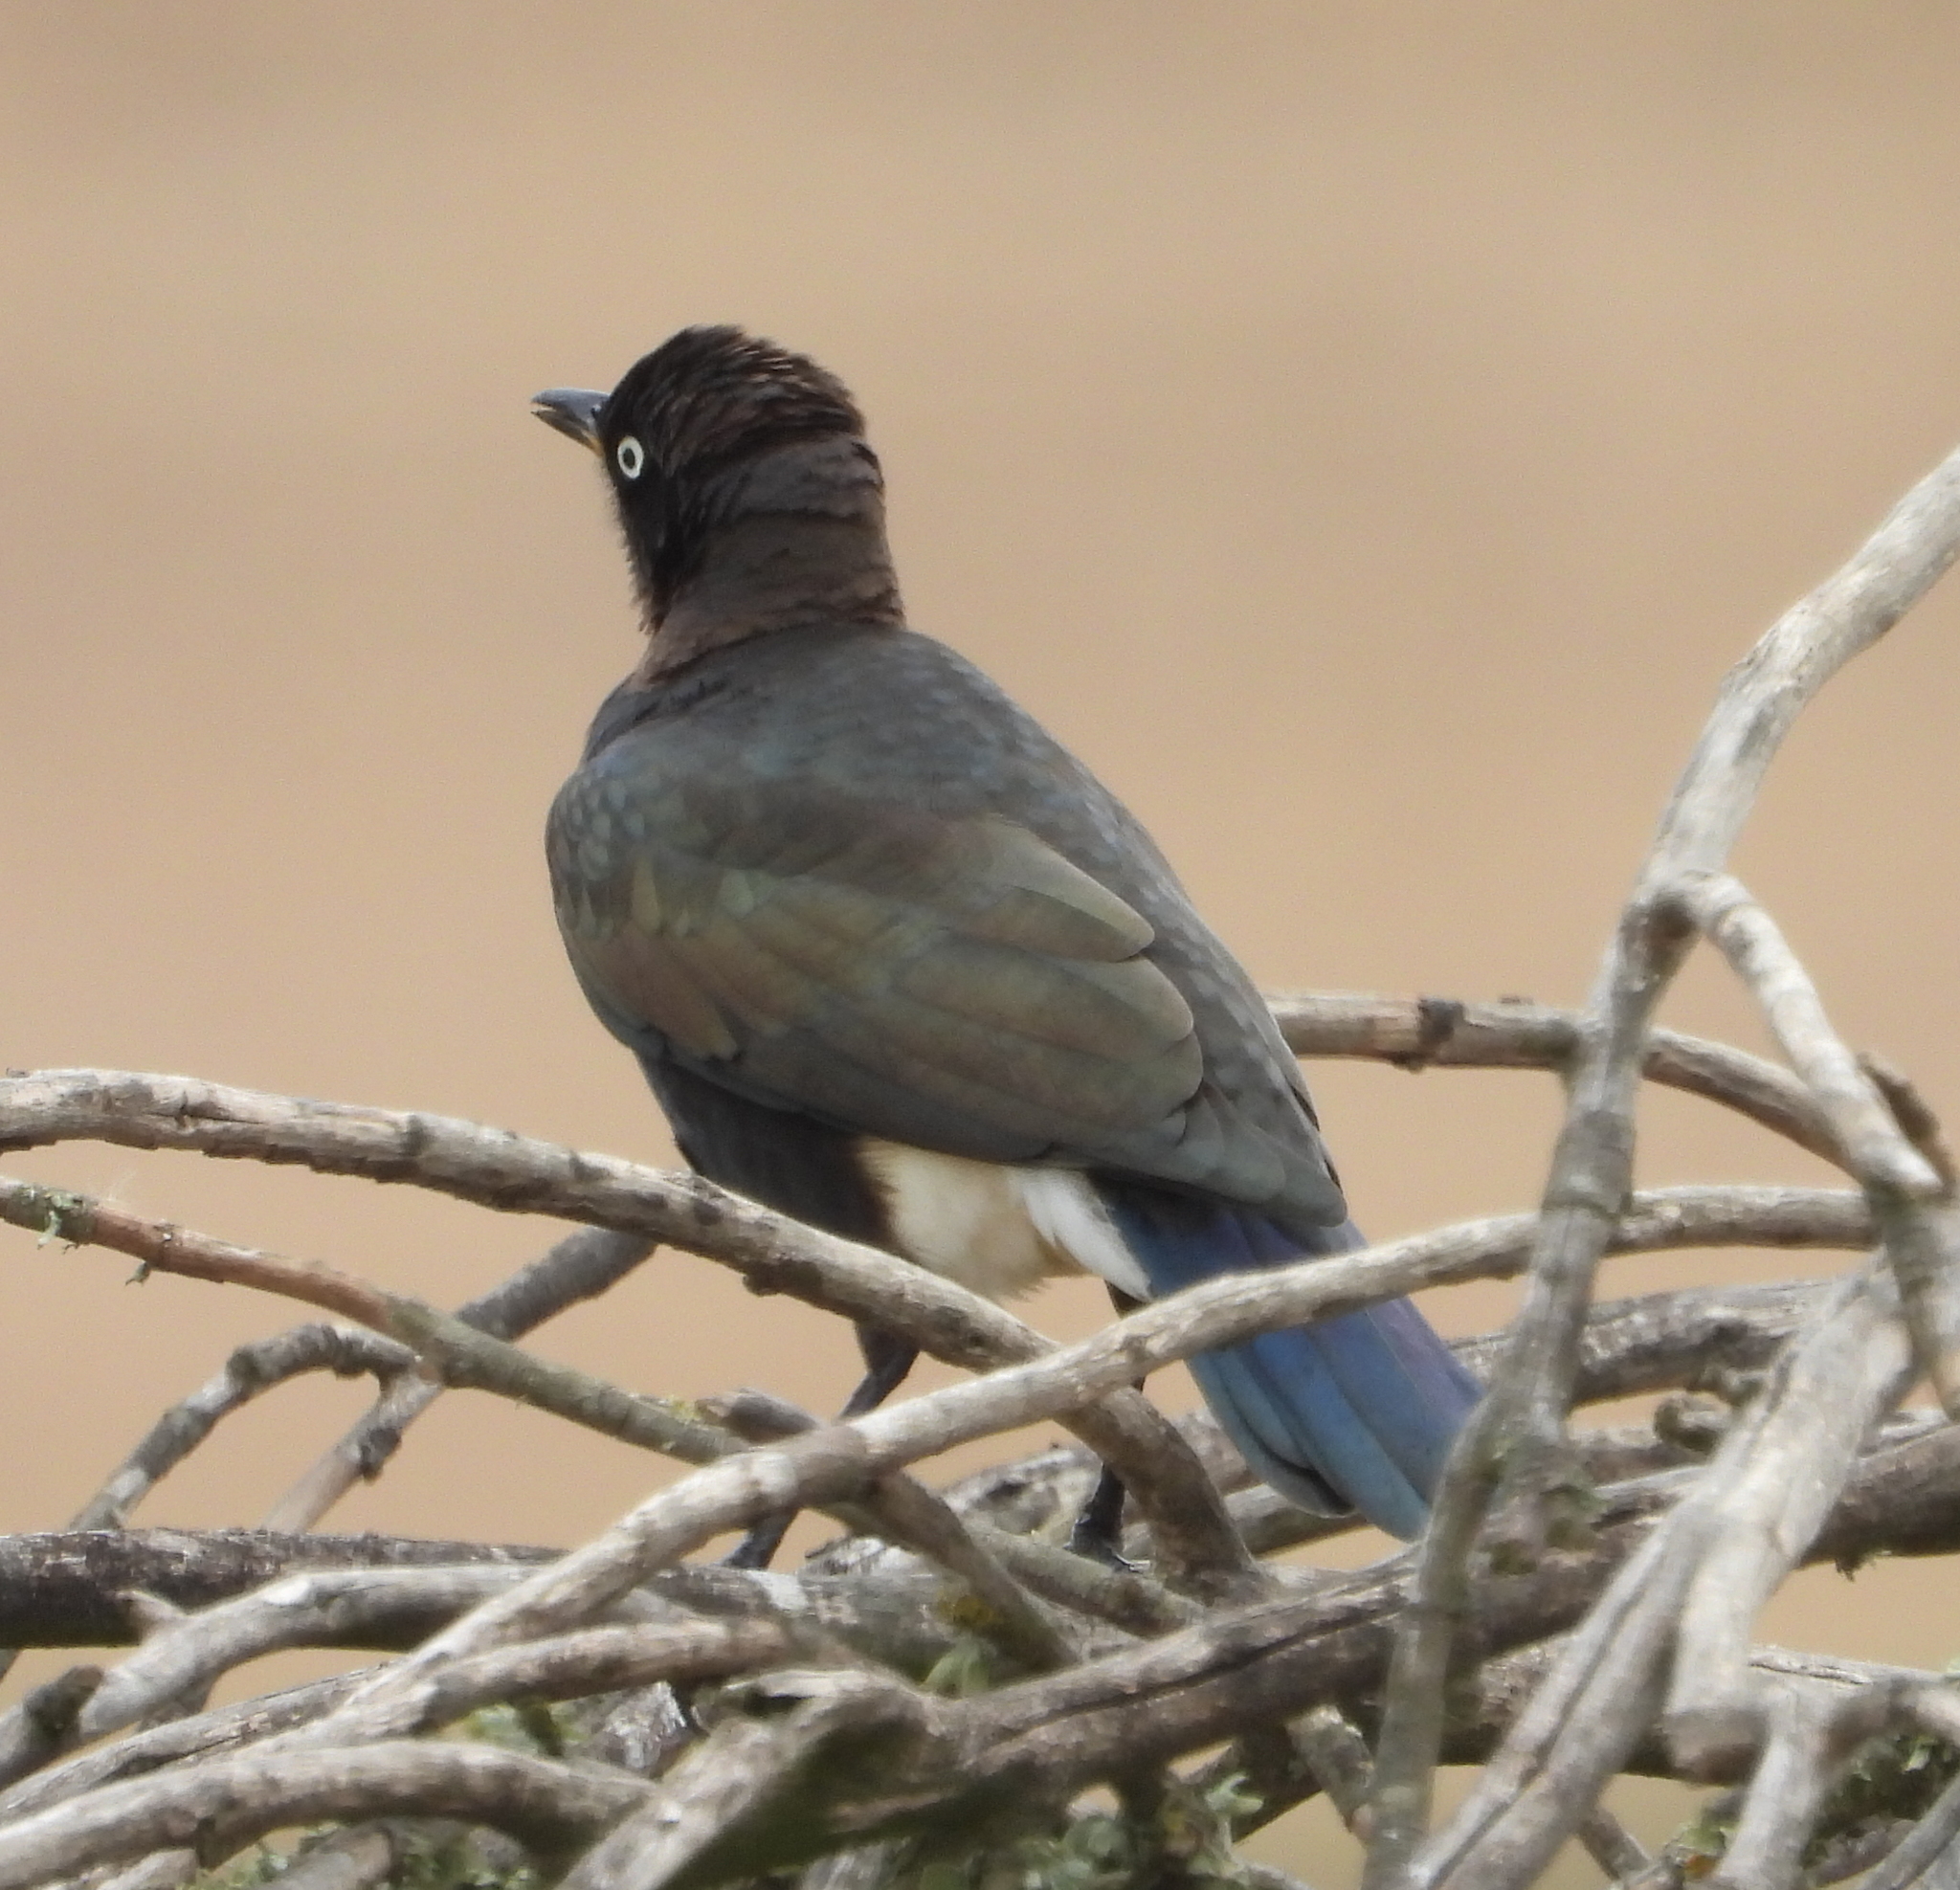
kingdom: Animalia
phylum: Chordata
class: Aves
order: Passeriformes
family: Sturnidae
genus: Lamprotornis
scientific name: Lamprotornis bicolor
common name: Pied starling
